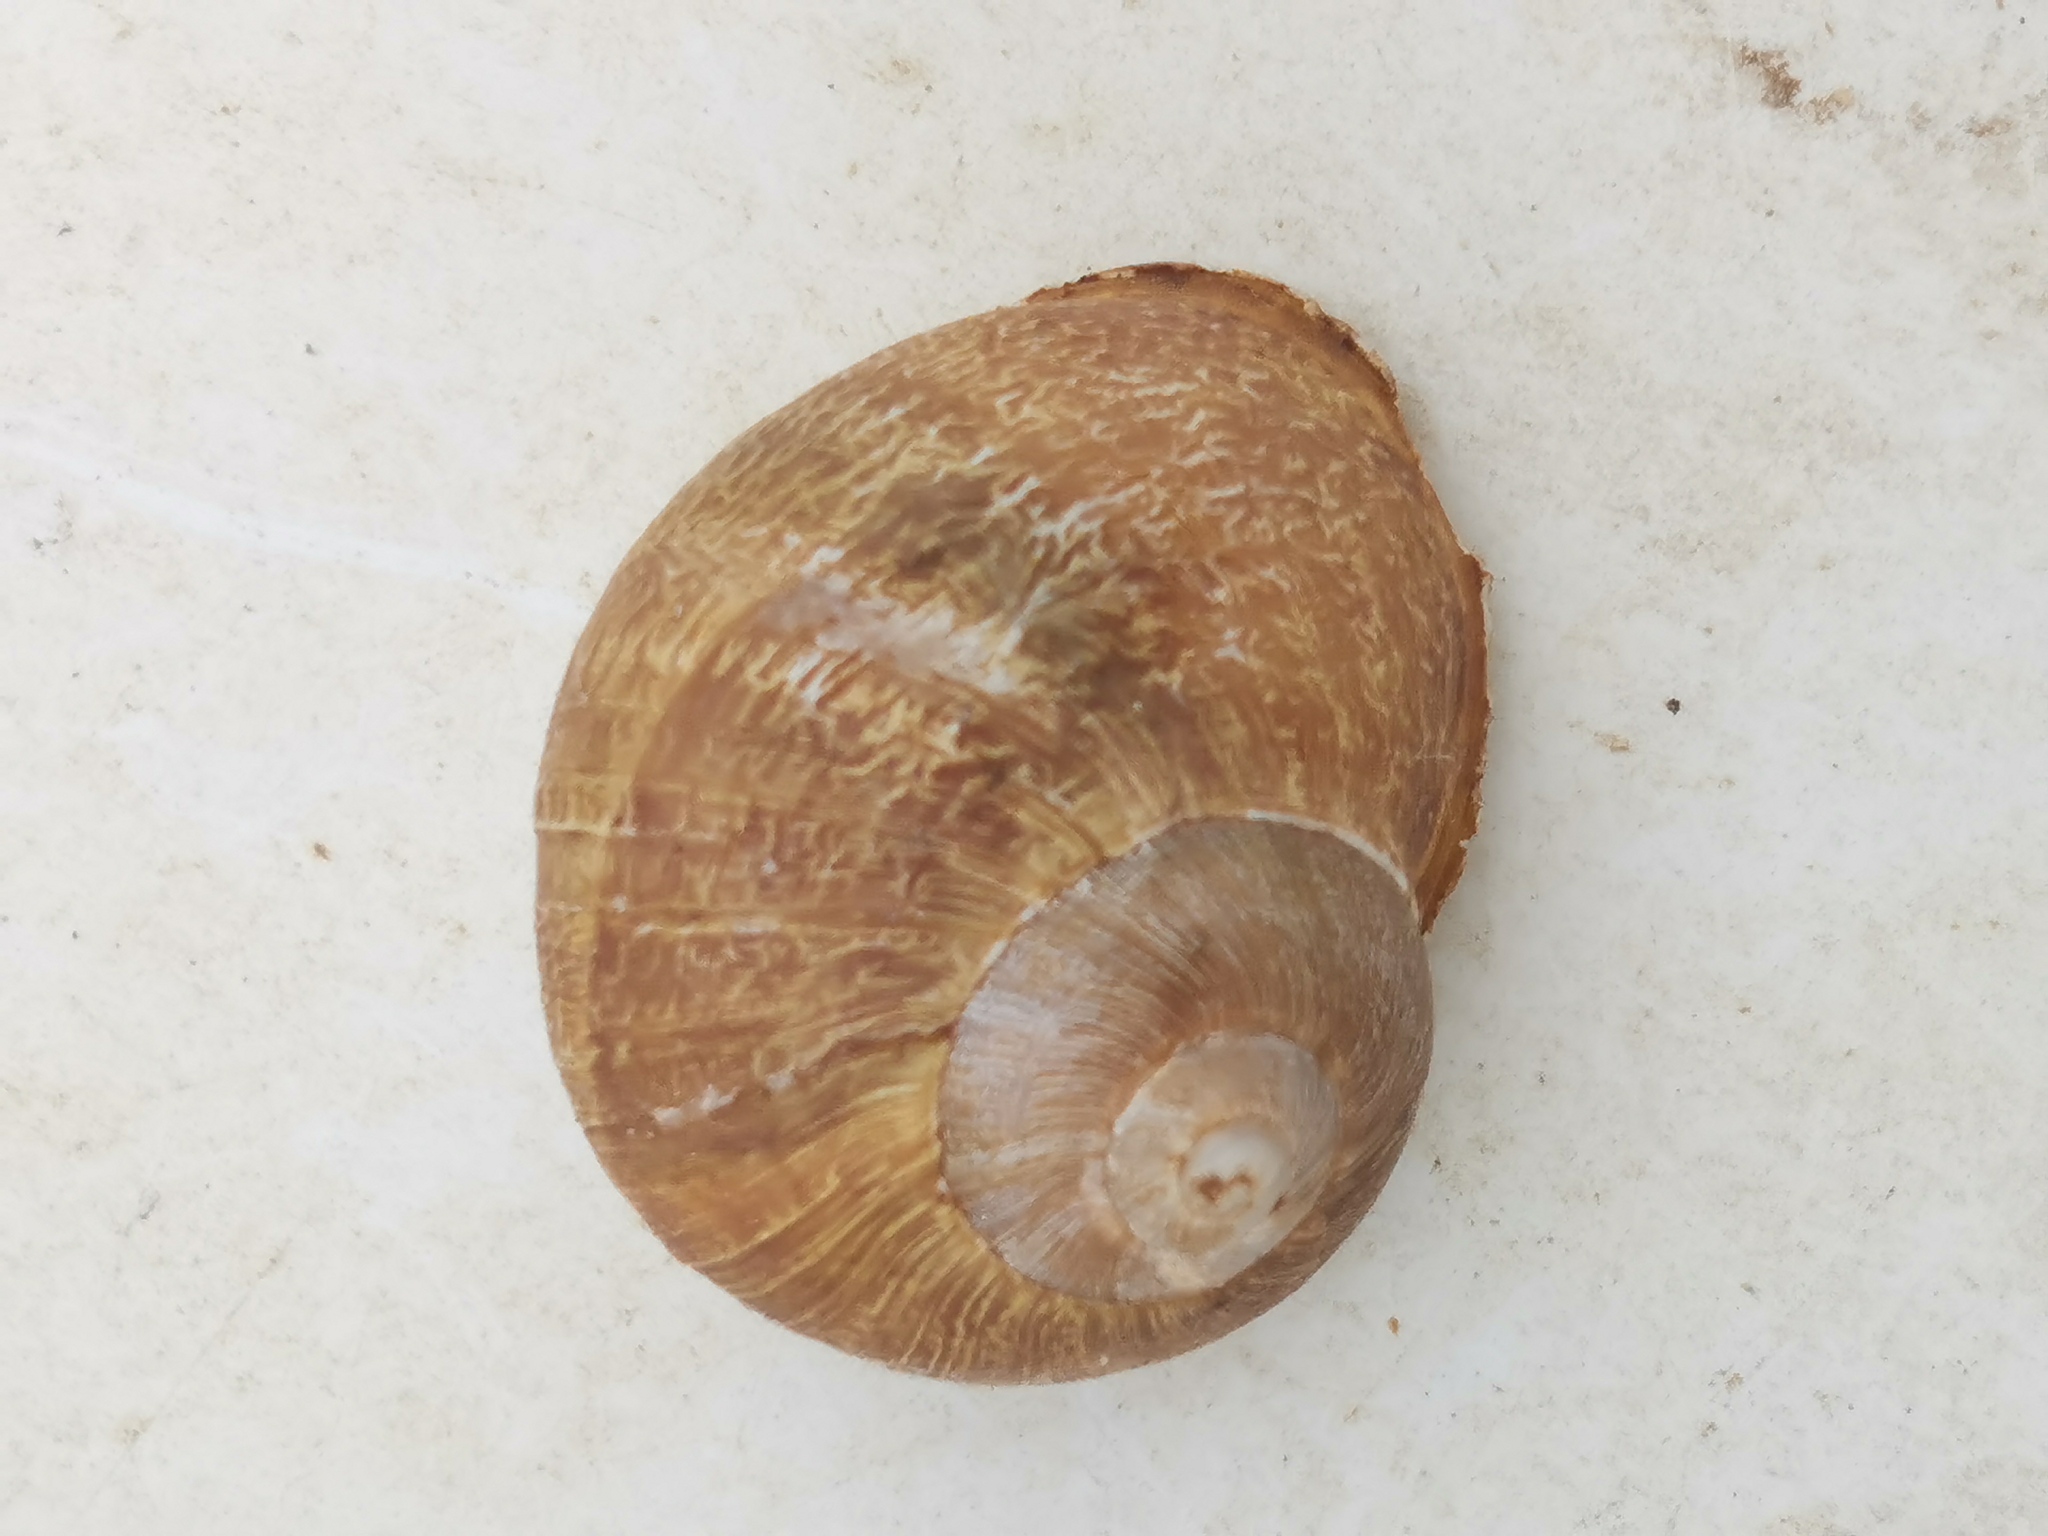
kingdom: Animalia
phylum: Mollusca
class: Gastropoda
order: Stylommatophora
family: Helicidae
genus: Cornu
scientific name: Cornu aspersum
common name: Brown garden snail
